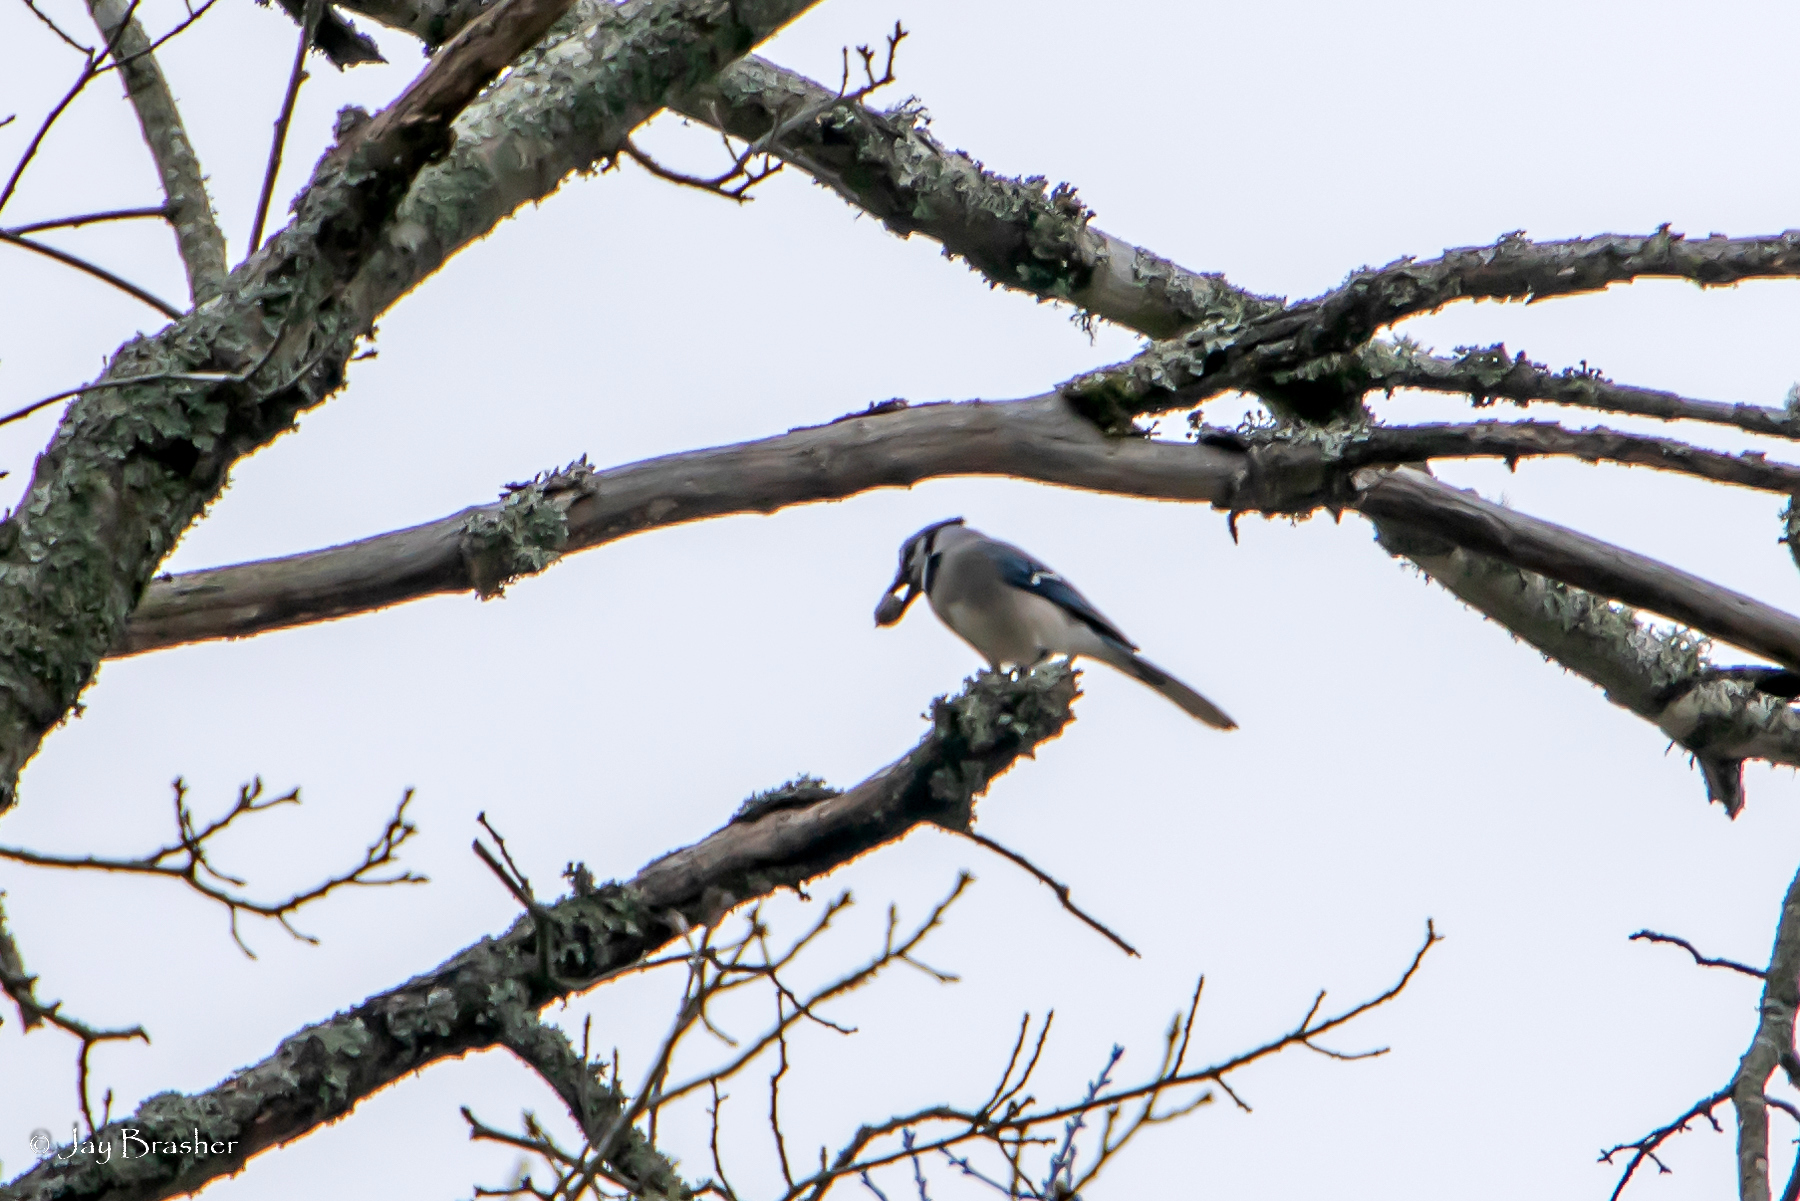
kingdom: Animalia
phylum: Chordata
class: Aves
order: Passeriformes
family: Corvidae
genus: Cyanocitta
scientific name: Cyanocitta cristata
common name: Blue jay
